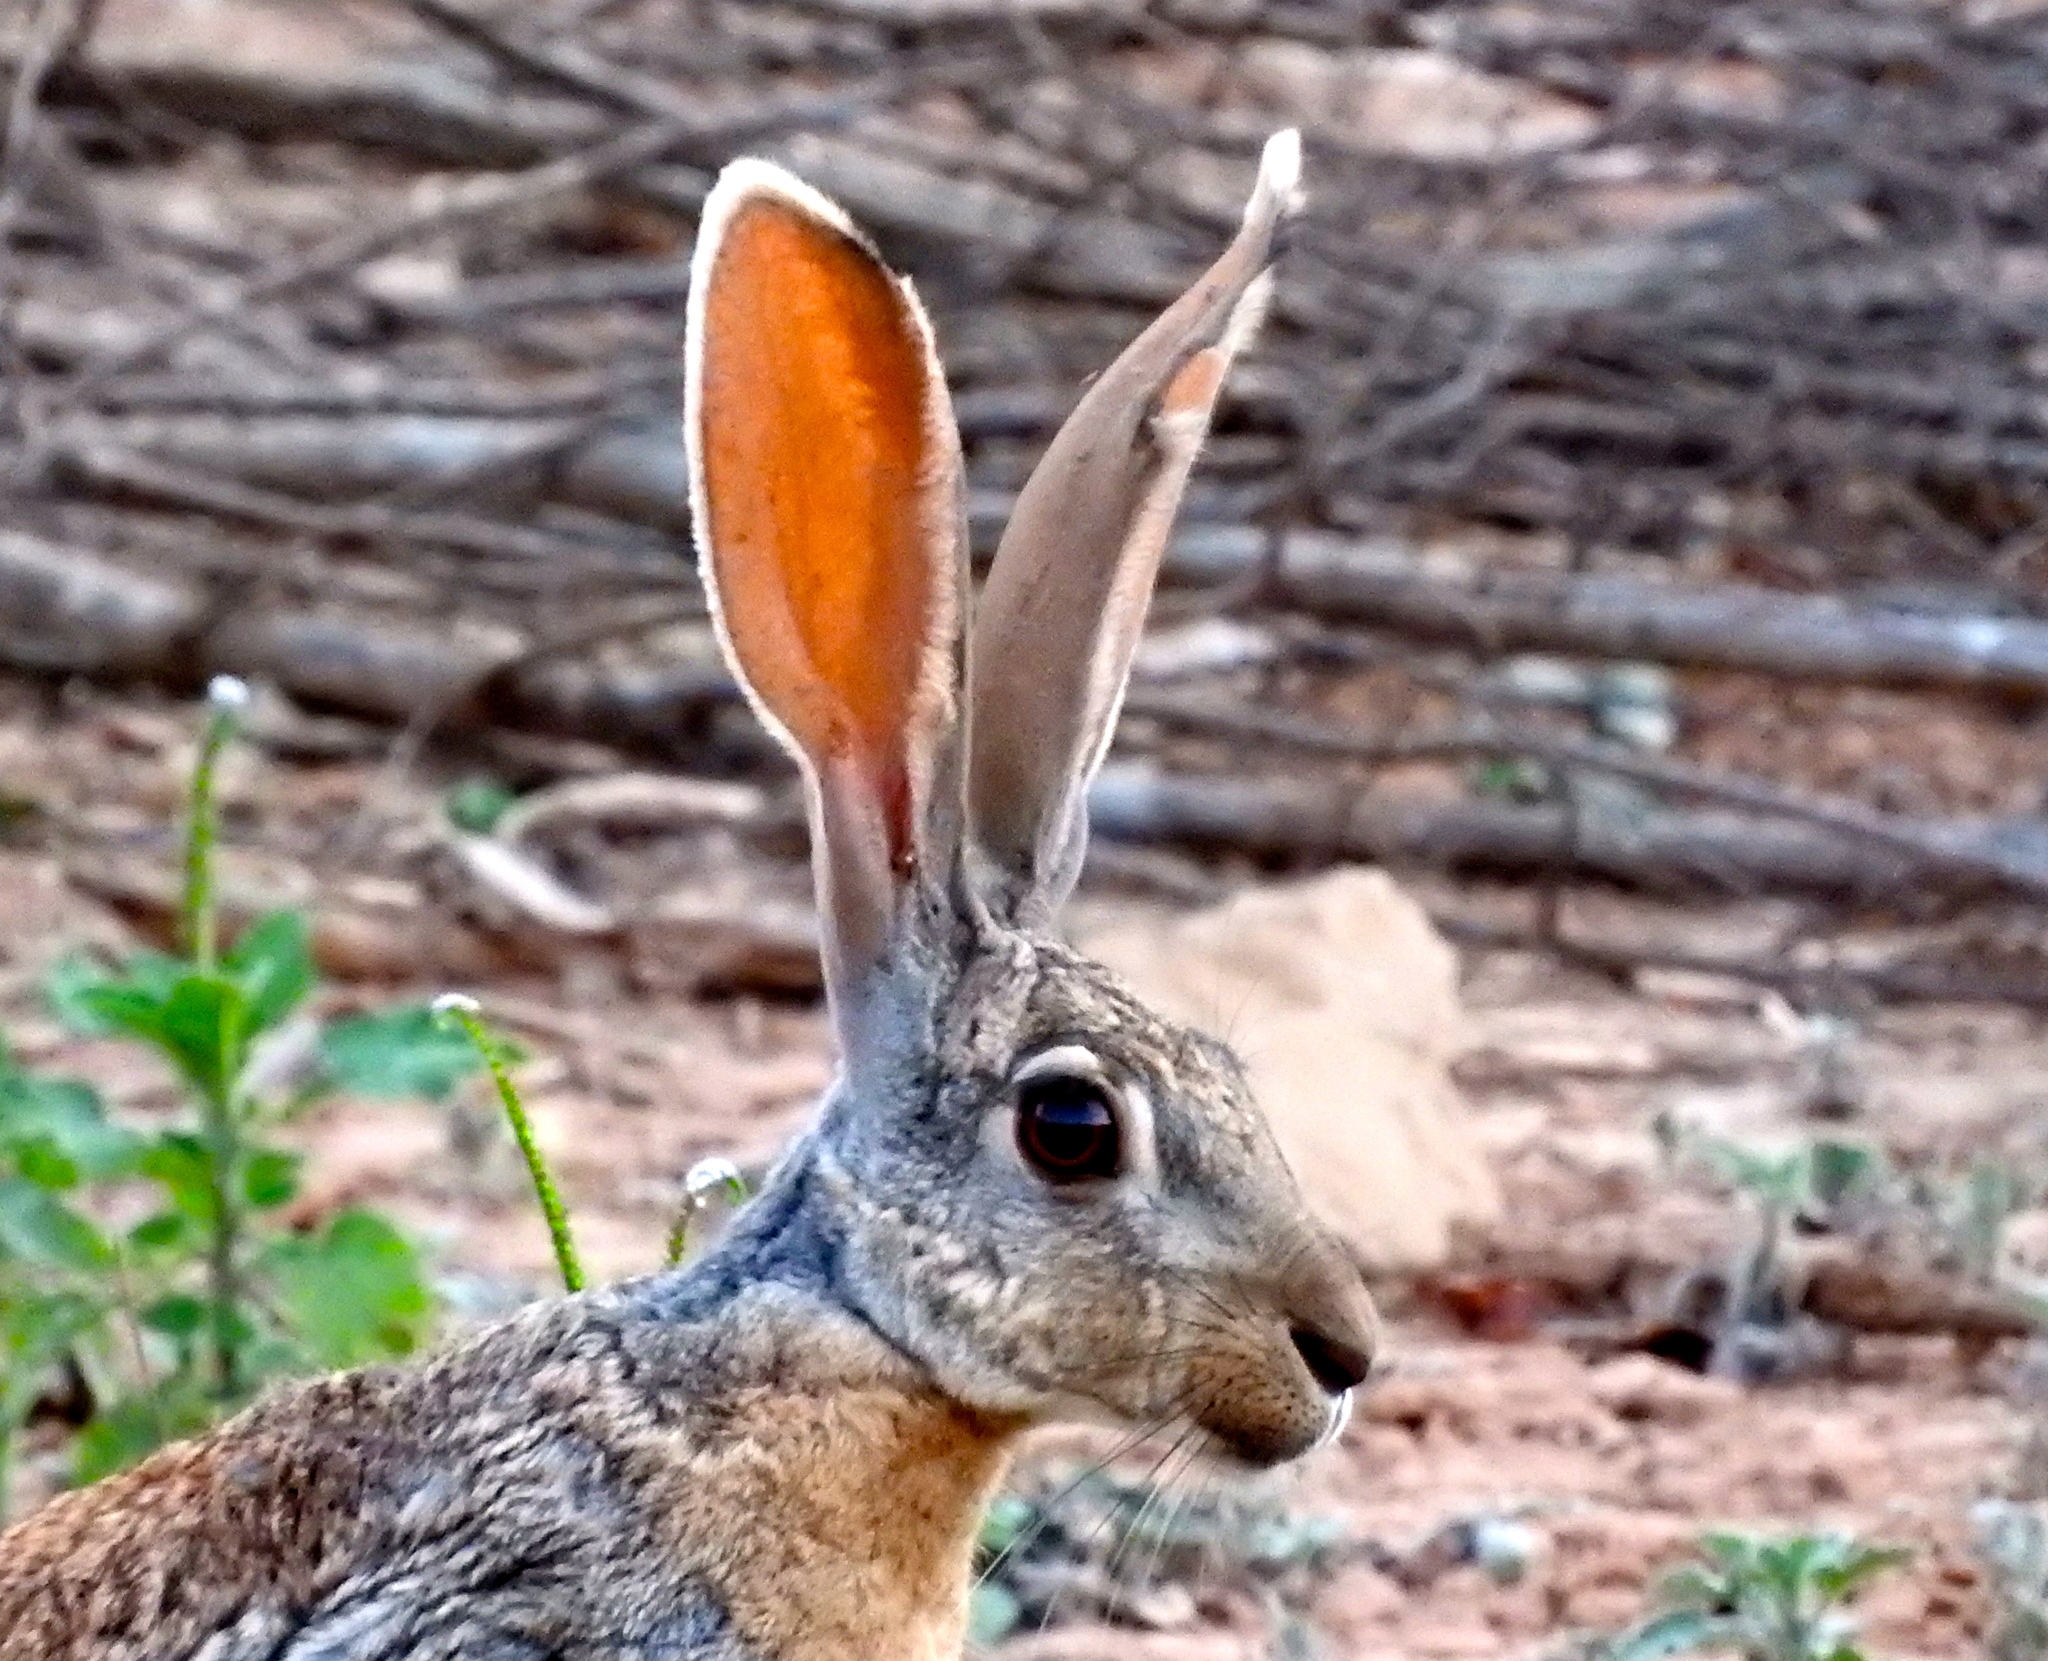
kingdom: Animalia
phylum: Chordata
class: Mammalia
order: Lagomorpha
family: Leporidae
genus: Lepus
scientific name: Lepus alleni
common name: Antelope jackrabbit
